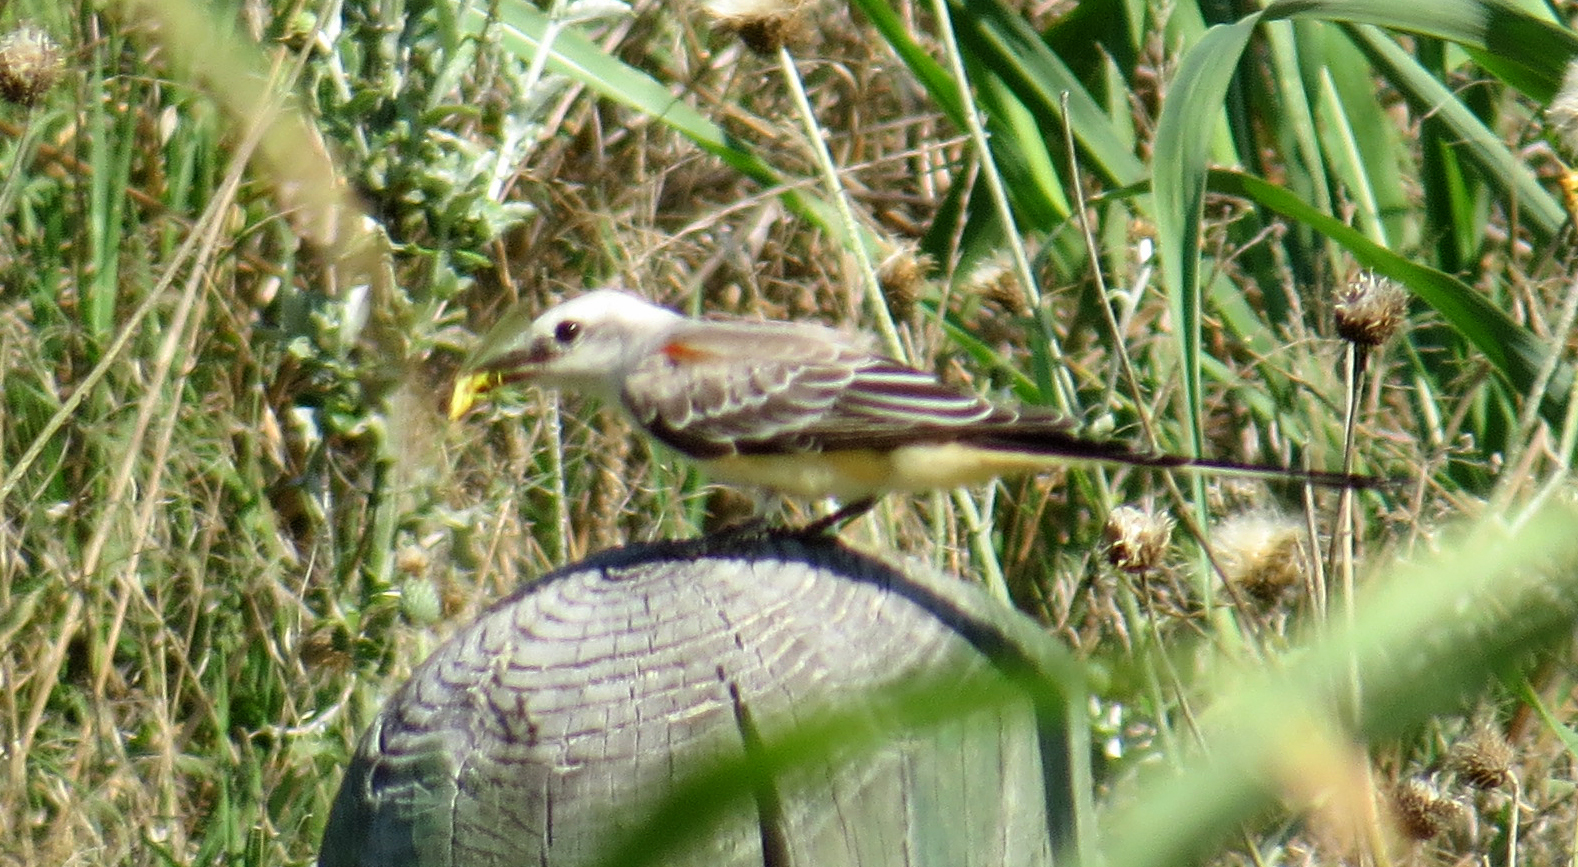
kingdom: Animalia
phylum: Chordata
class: Aves
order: Passeriformes
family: Tyrannidae
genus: Tyrannus
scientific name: Tyrannus forficatus
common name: Scissor-tailed flycatcher
